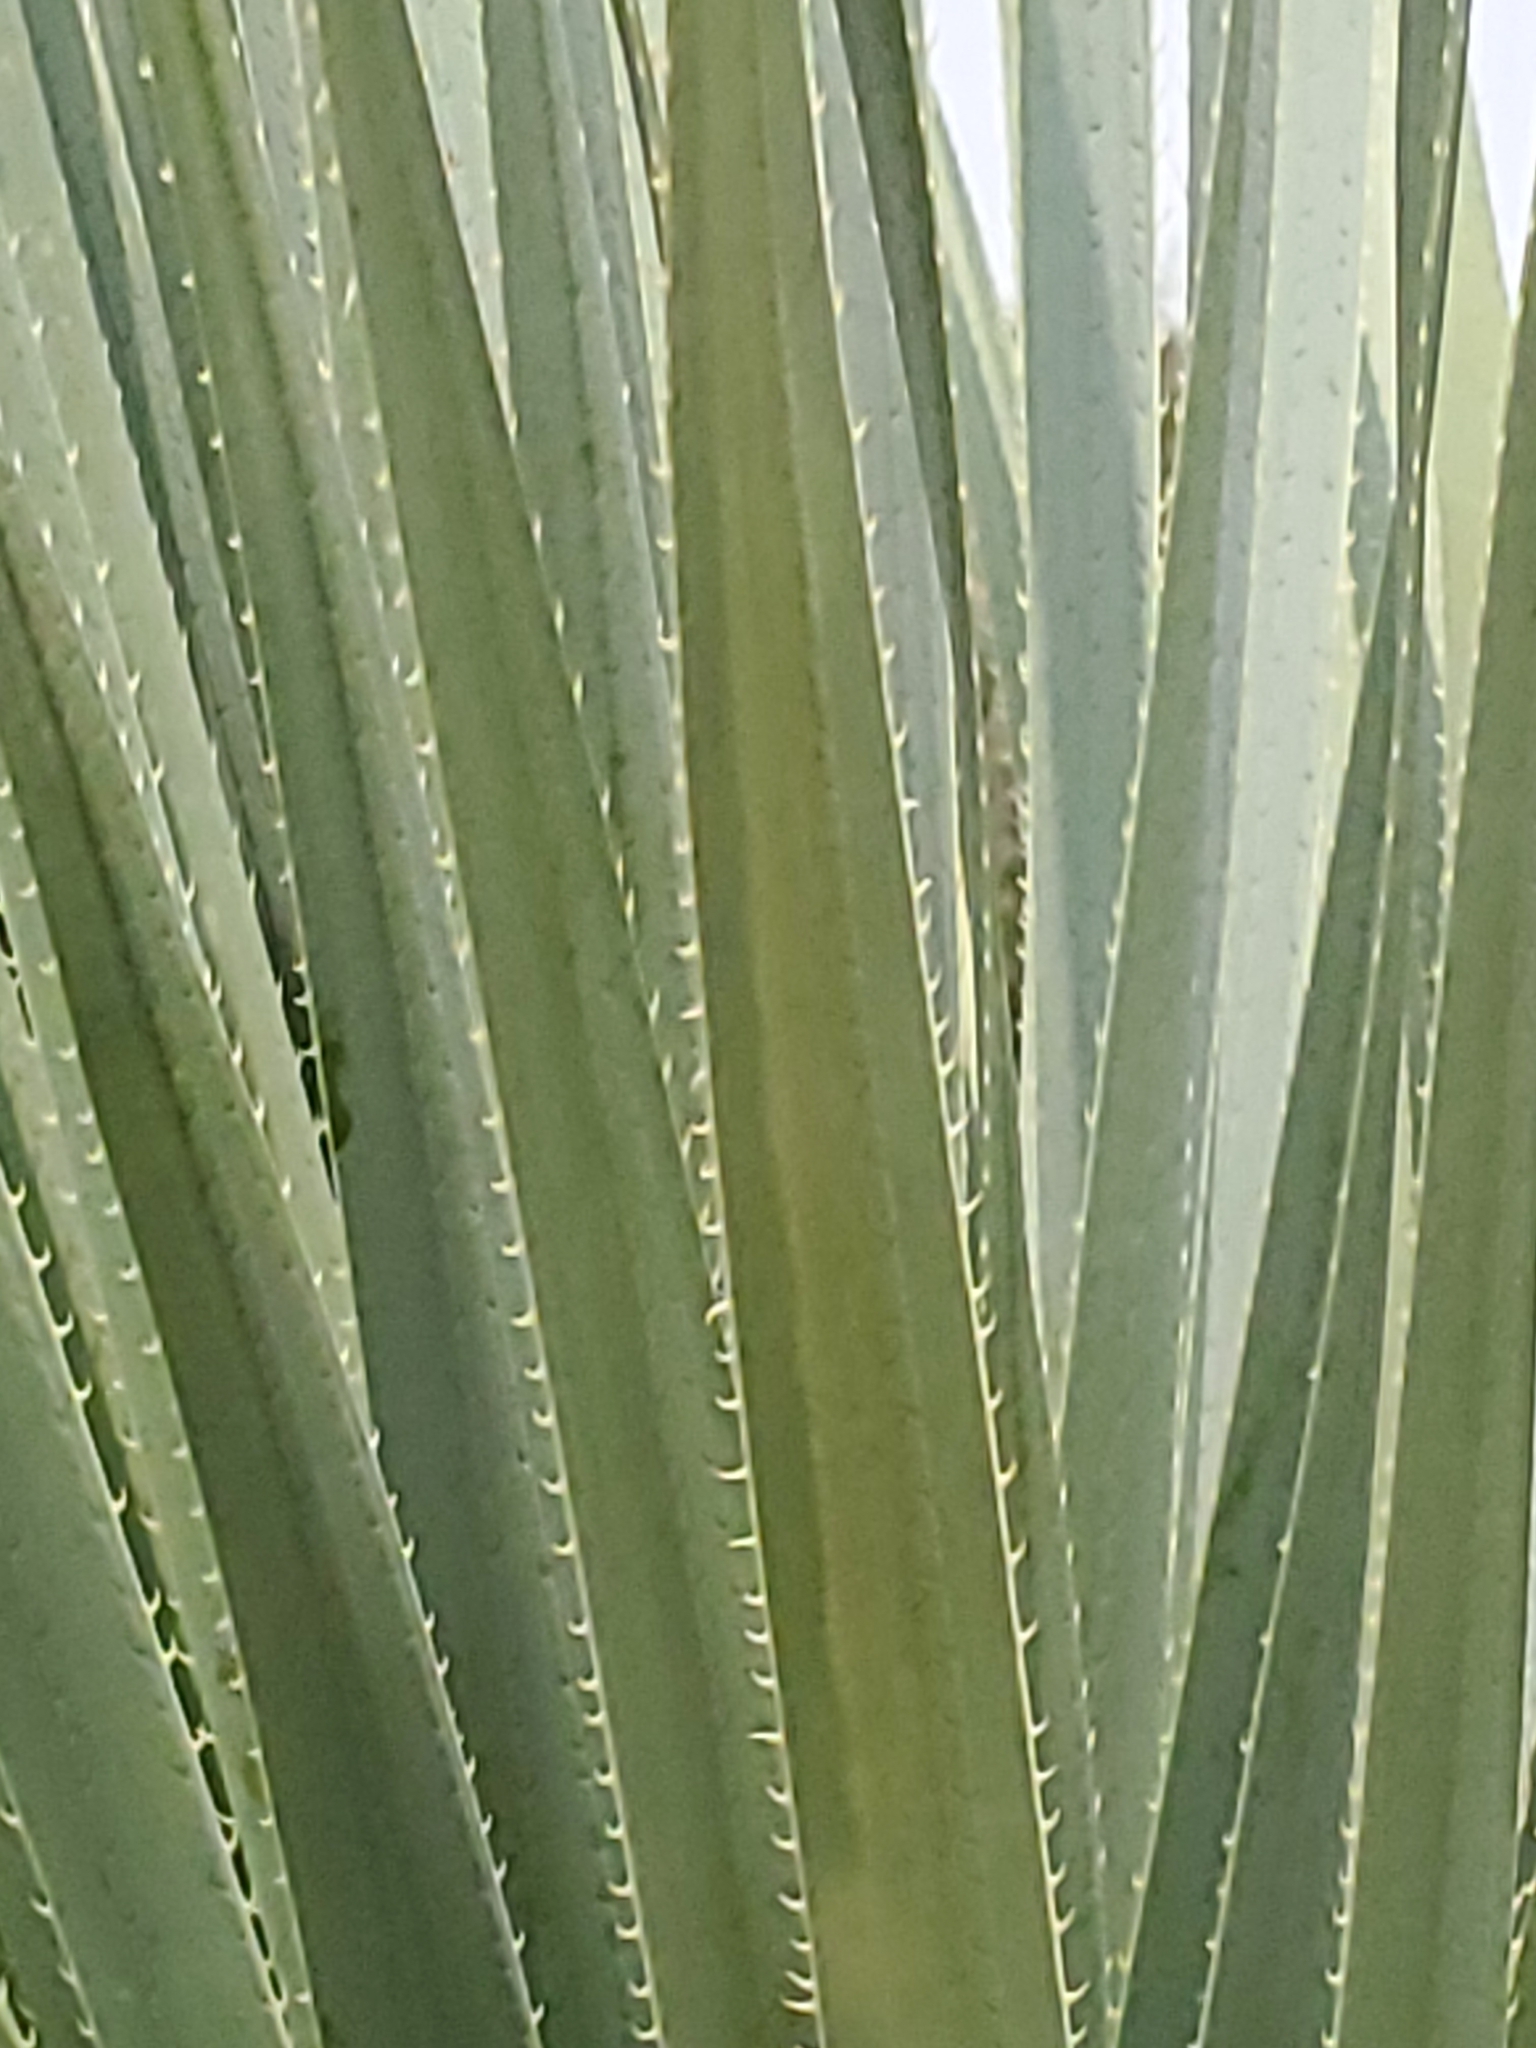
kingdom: Plantae
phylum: Tracheophyta
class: Liliopsida
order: Asparagales
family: Asparagaceae
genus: Dasylirion
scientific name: Dasylirion wheeleri
